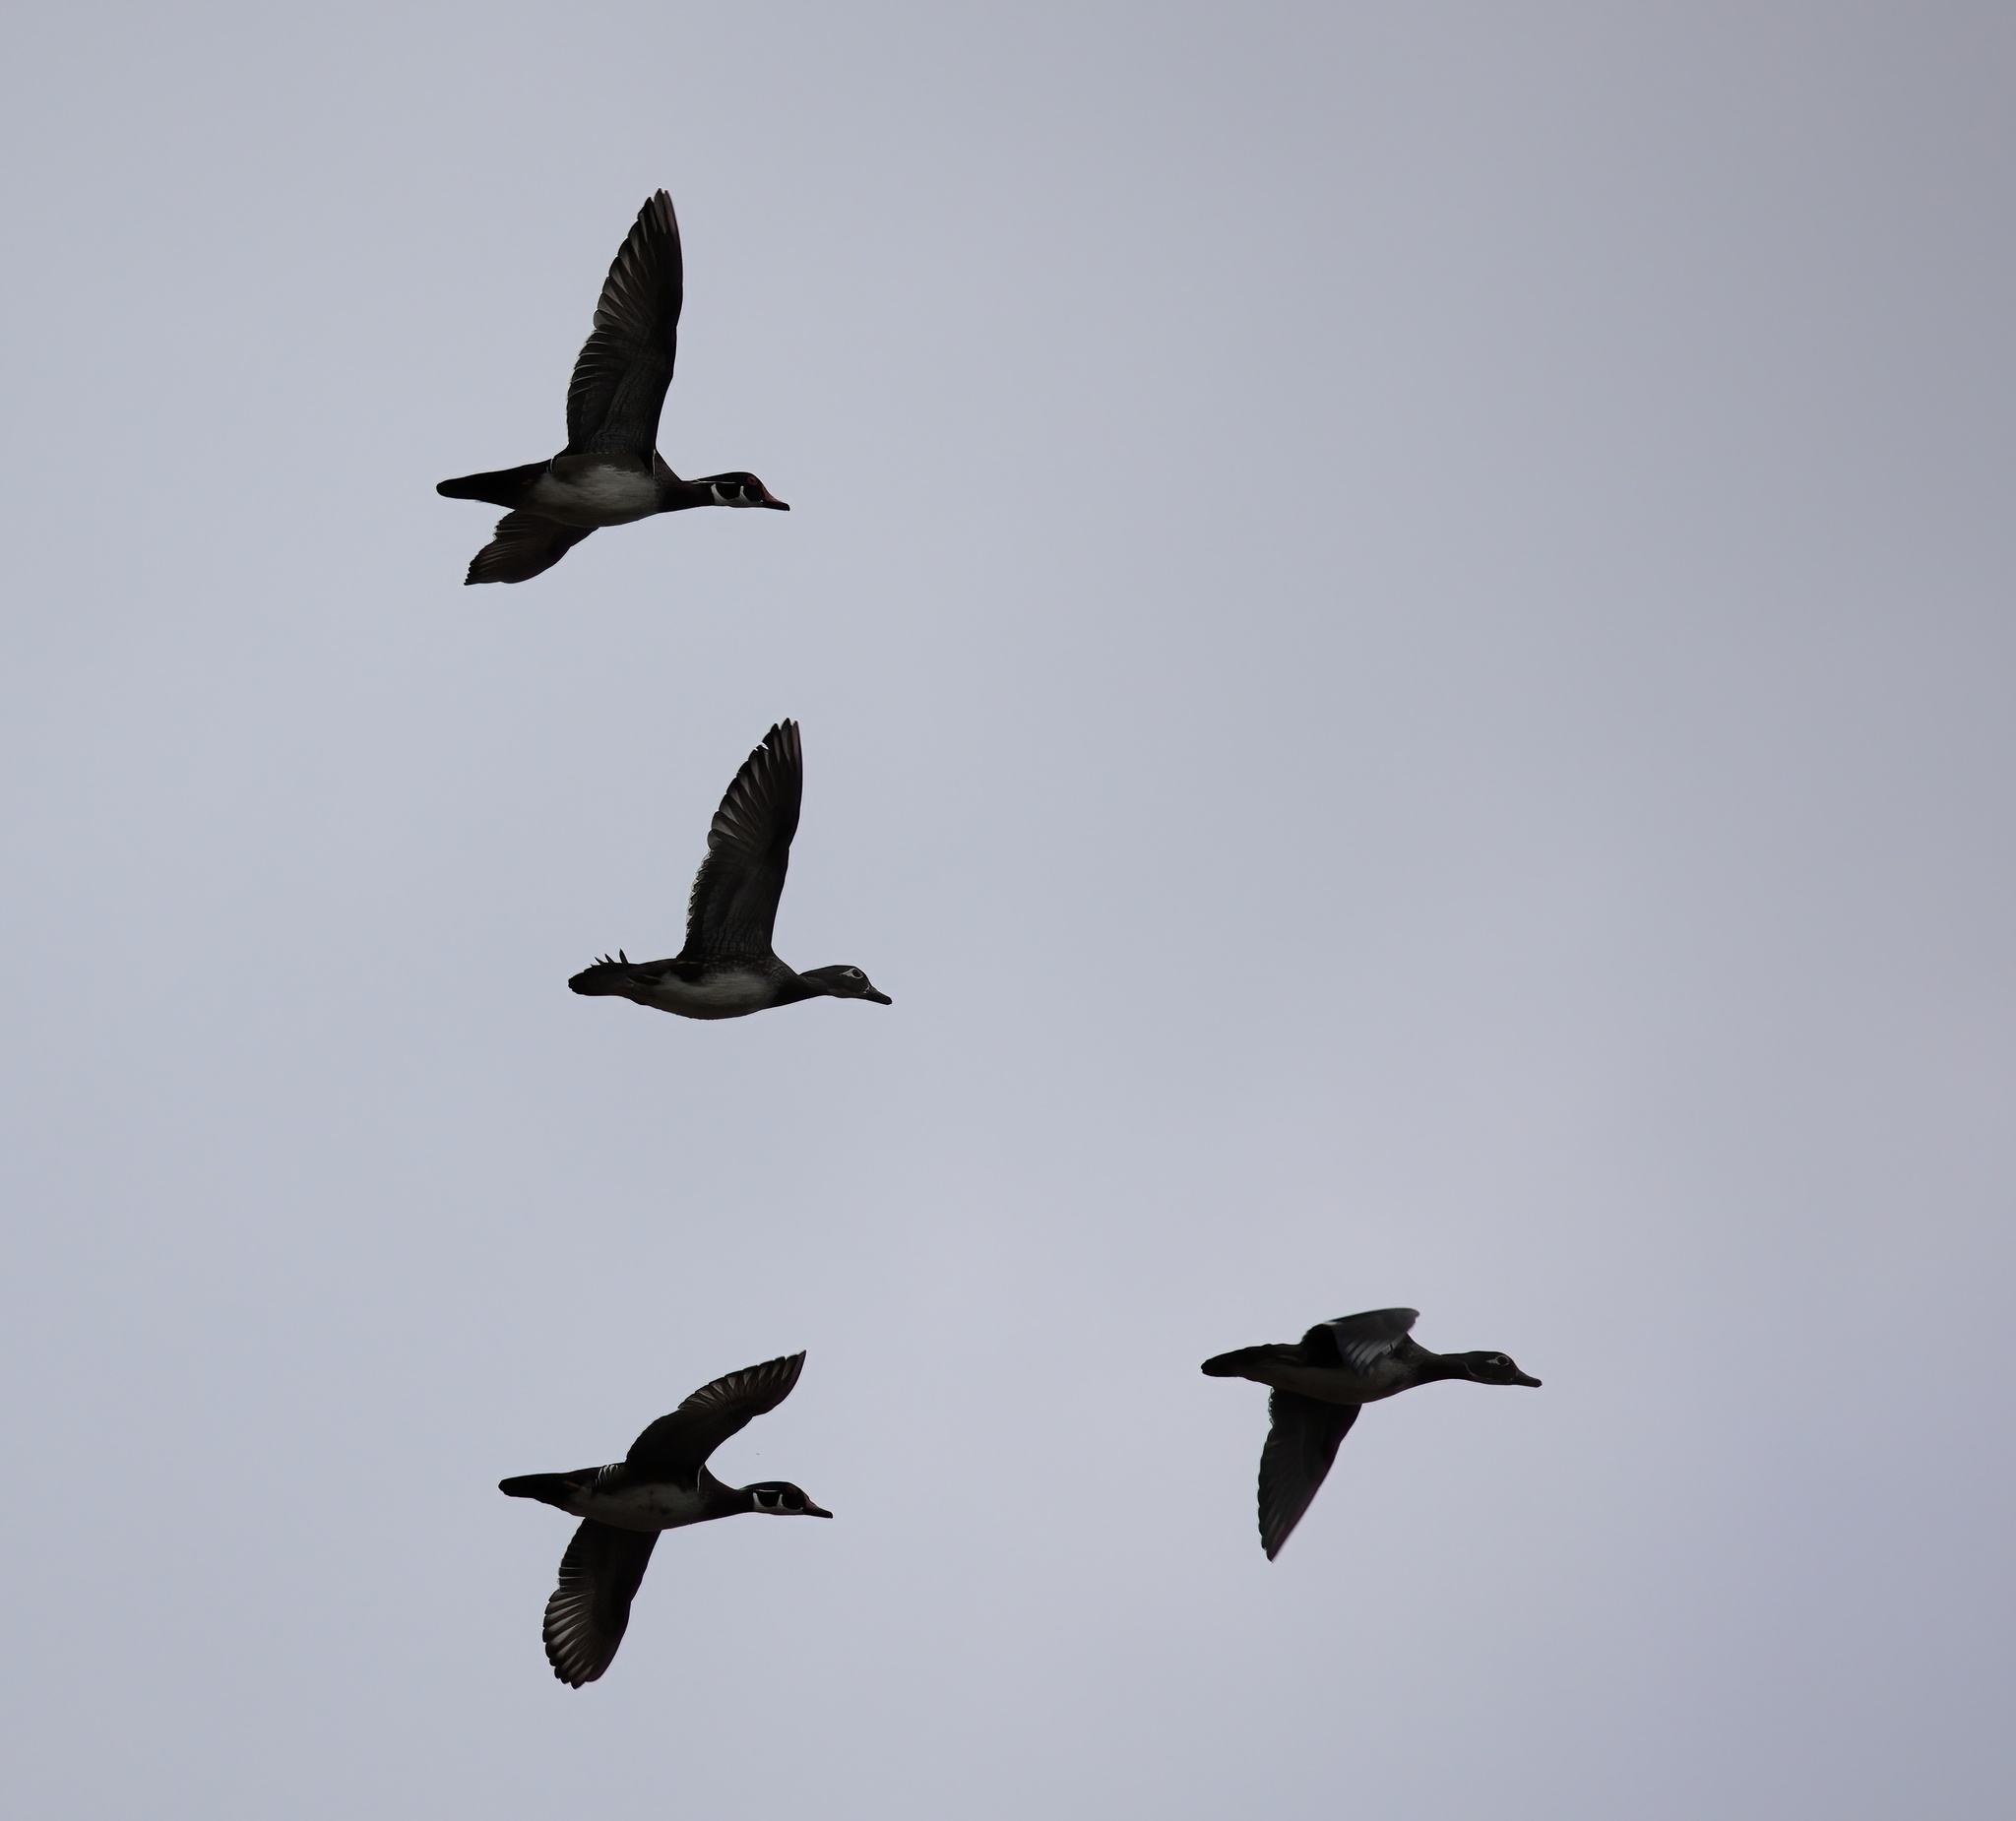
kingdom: Animalia
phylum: Chordata
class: Aves
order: Anseriformes
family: Anatidae
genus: Aix
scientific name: Aix sponsa
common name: Wood duck
